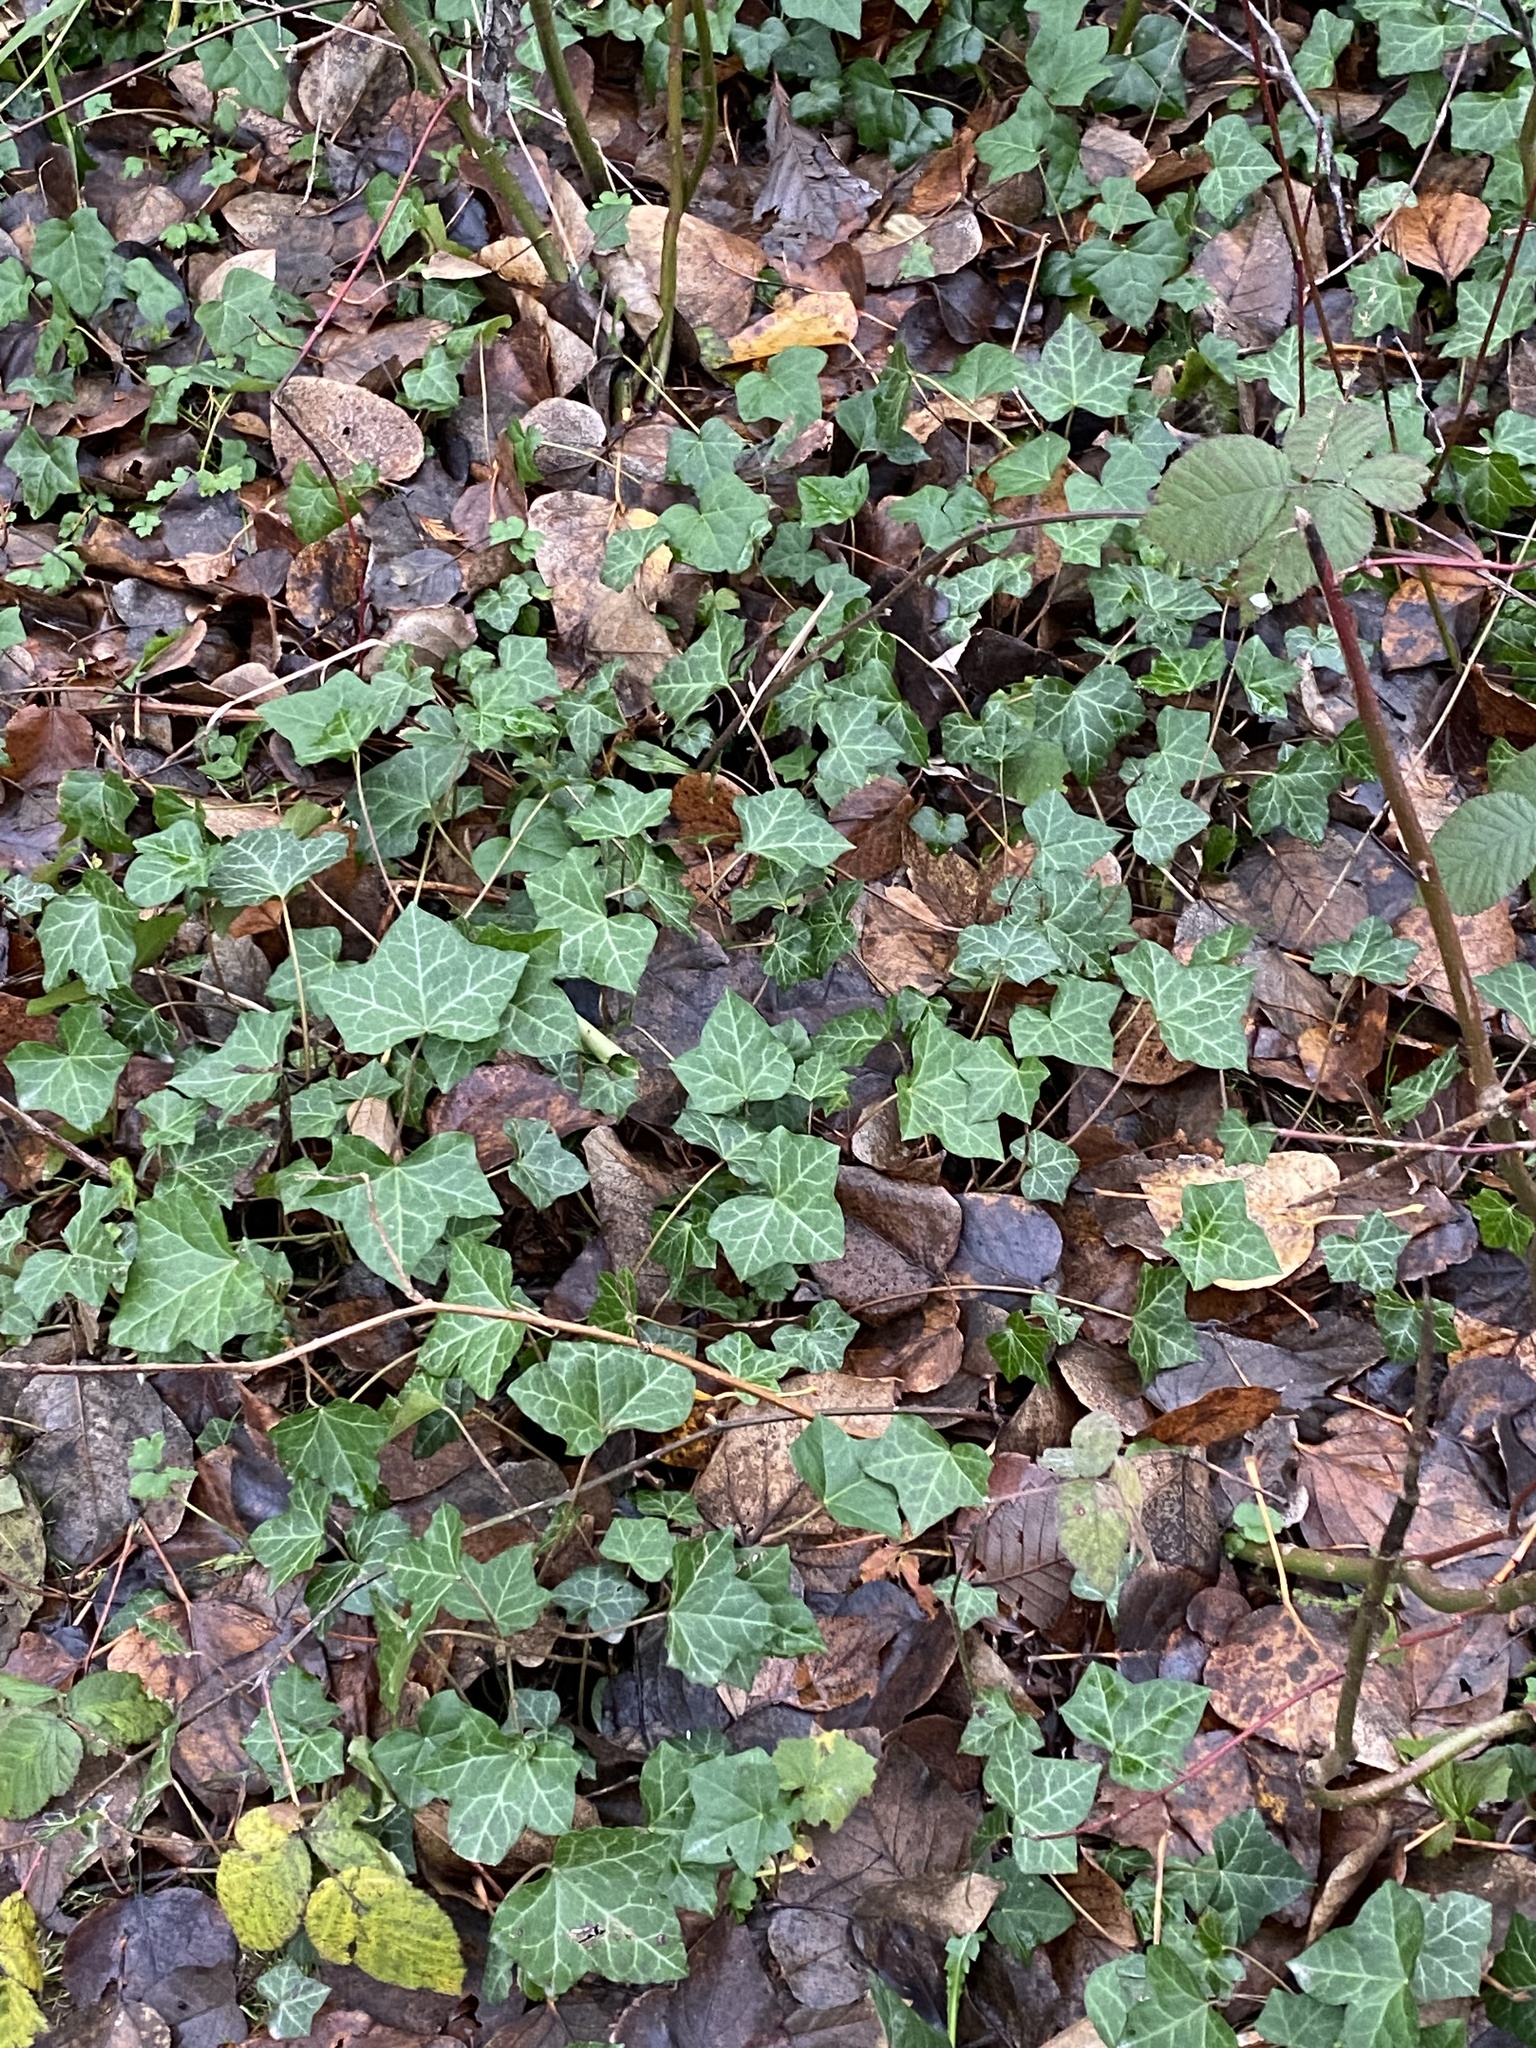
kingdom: Plantae
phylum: Tracheophyta
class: Magnoliopsida
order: Apiales
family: Araliaceae
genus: Hedera
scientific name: Hedera helix
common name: Ivy
